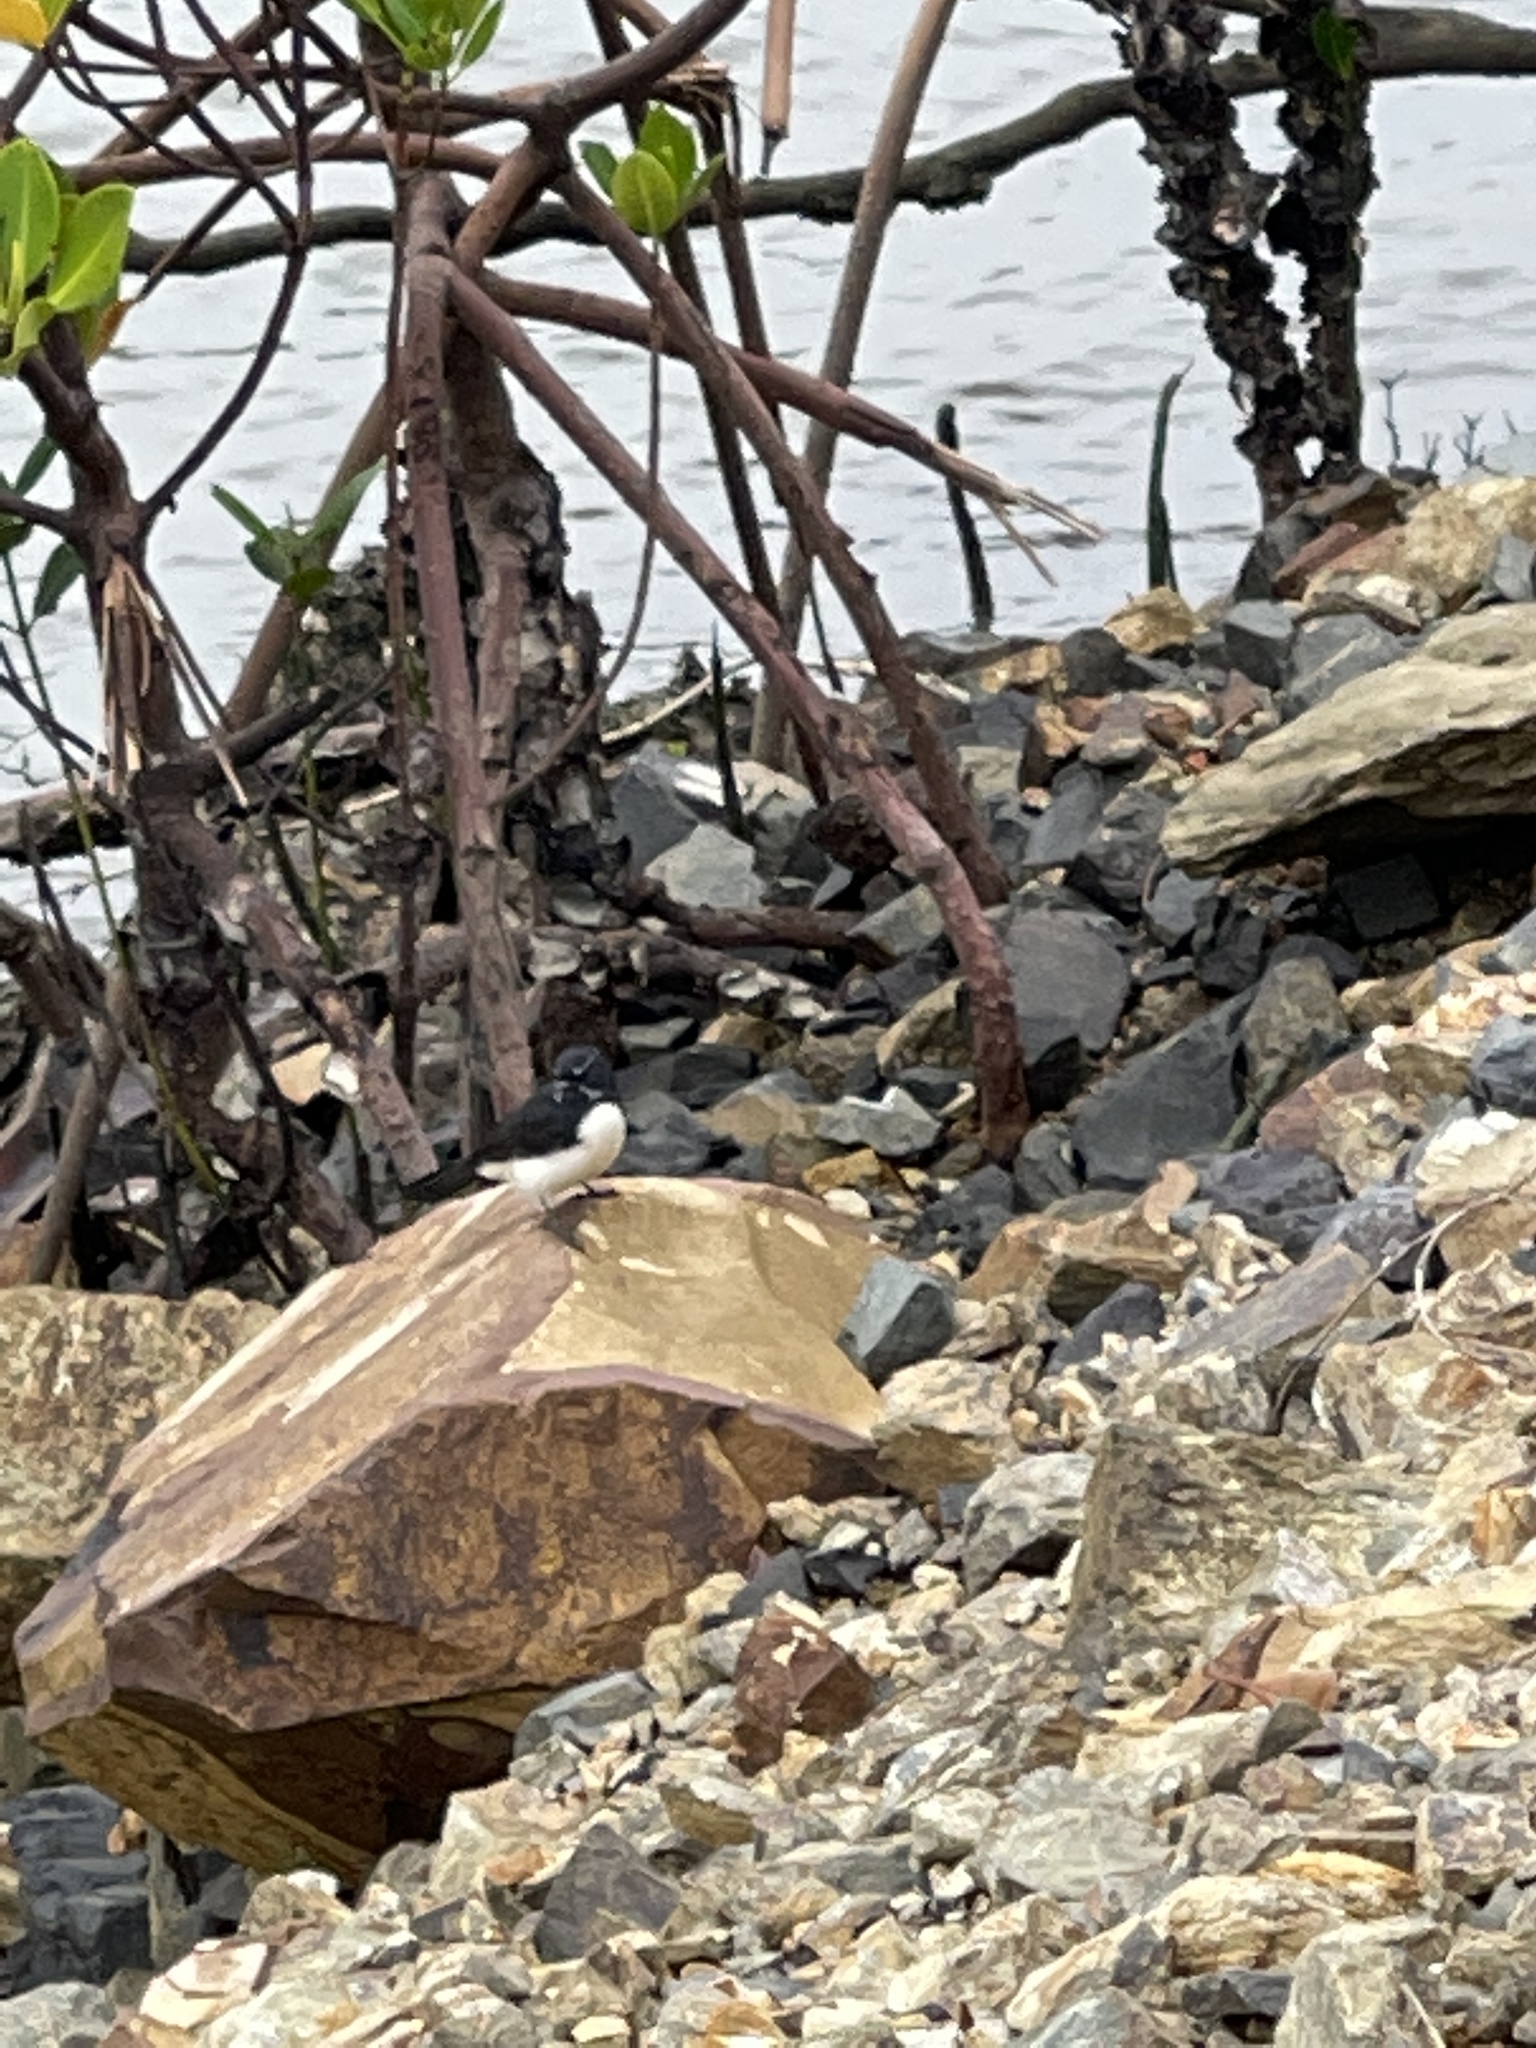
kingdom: Animalia
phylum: Chordata
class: Aves
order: Passeriformes
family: Rhipiduridae
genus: Rhipidura
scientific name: Rhipidura leucophrys
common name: Willie wagtail
